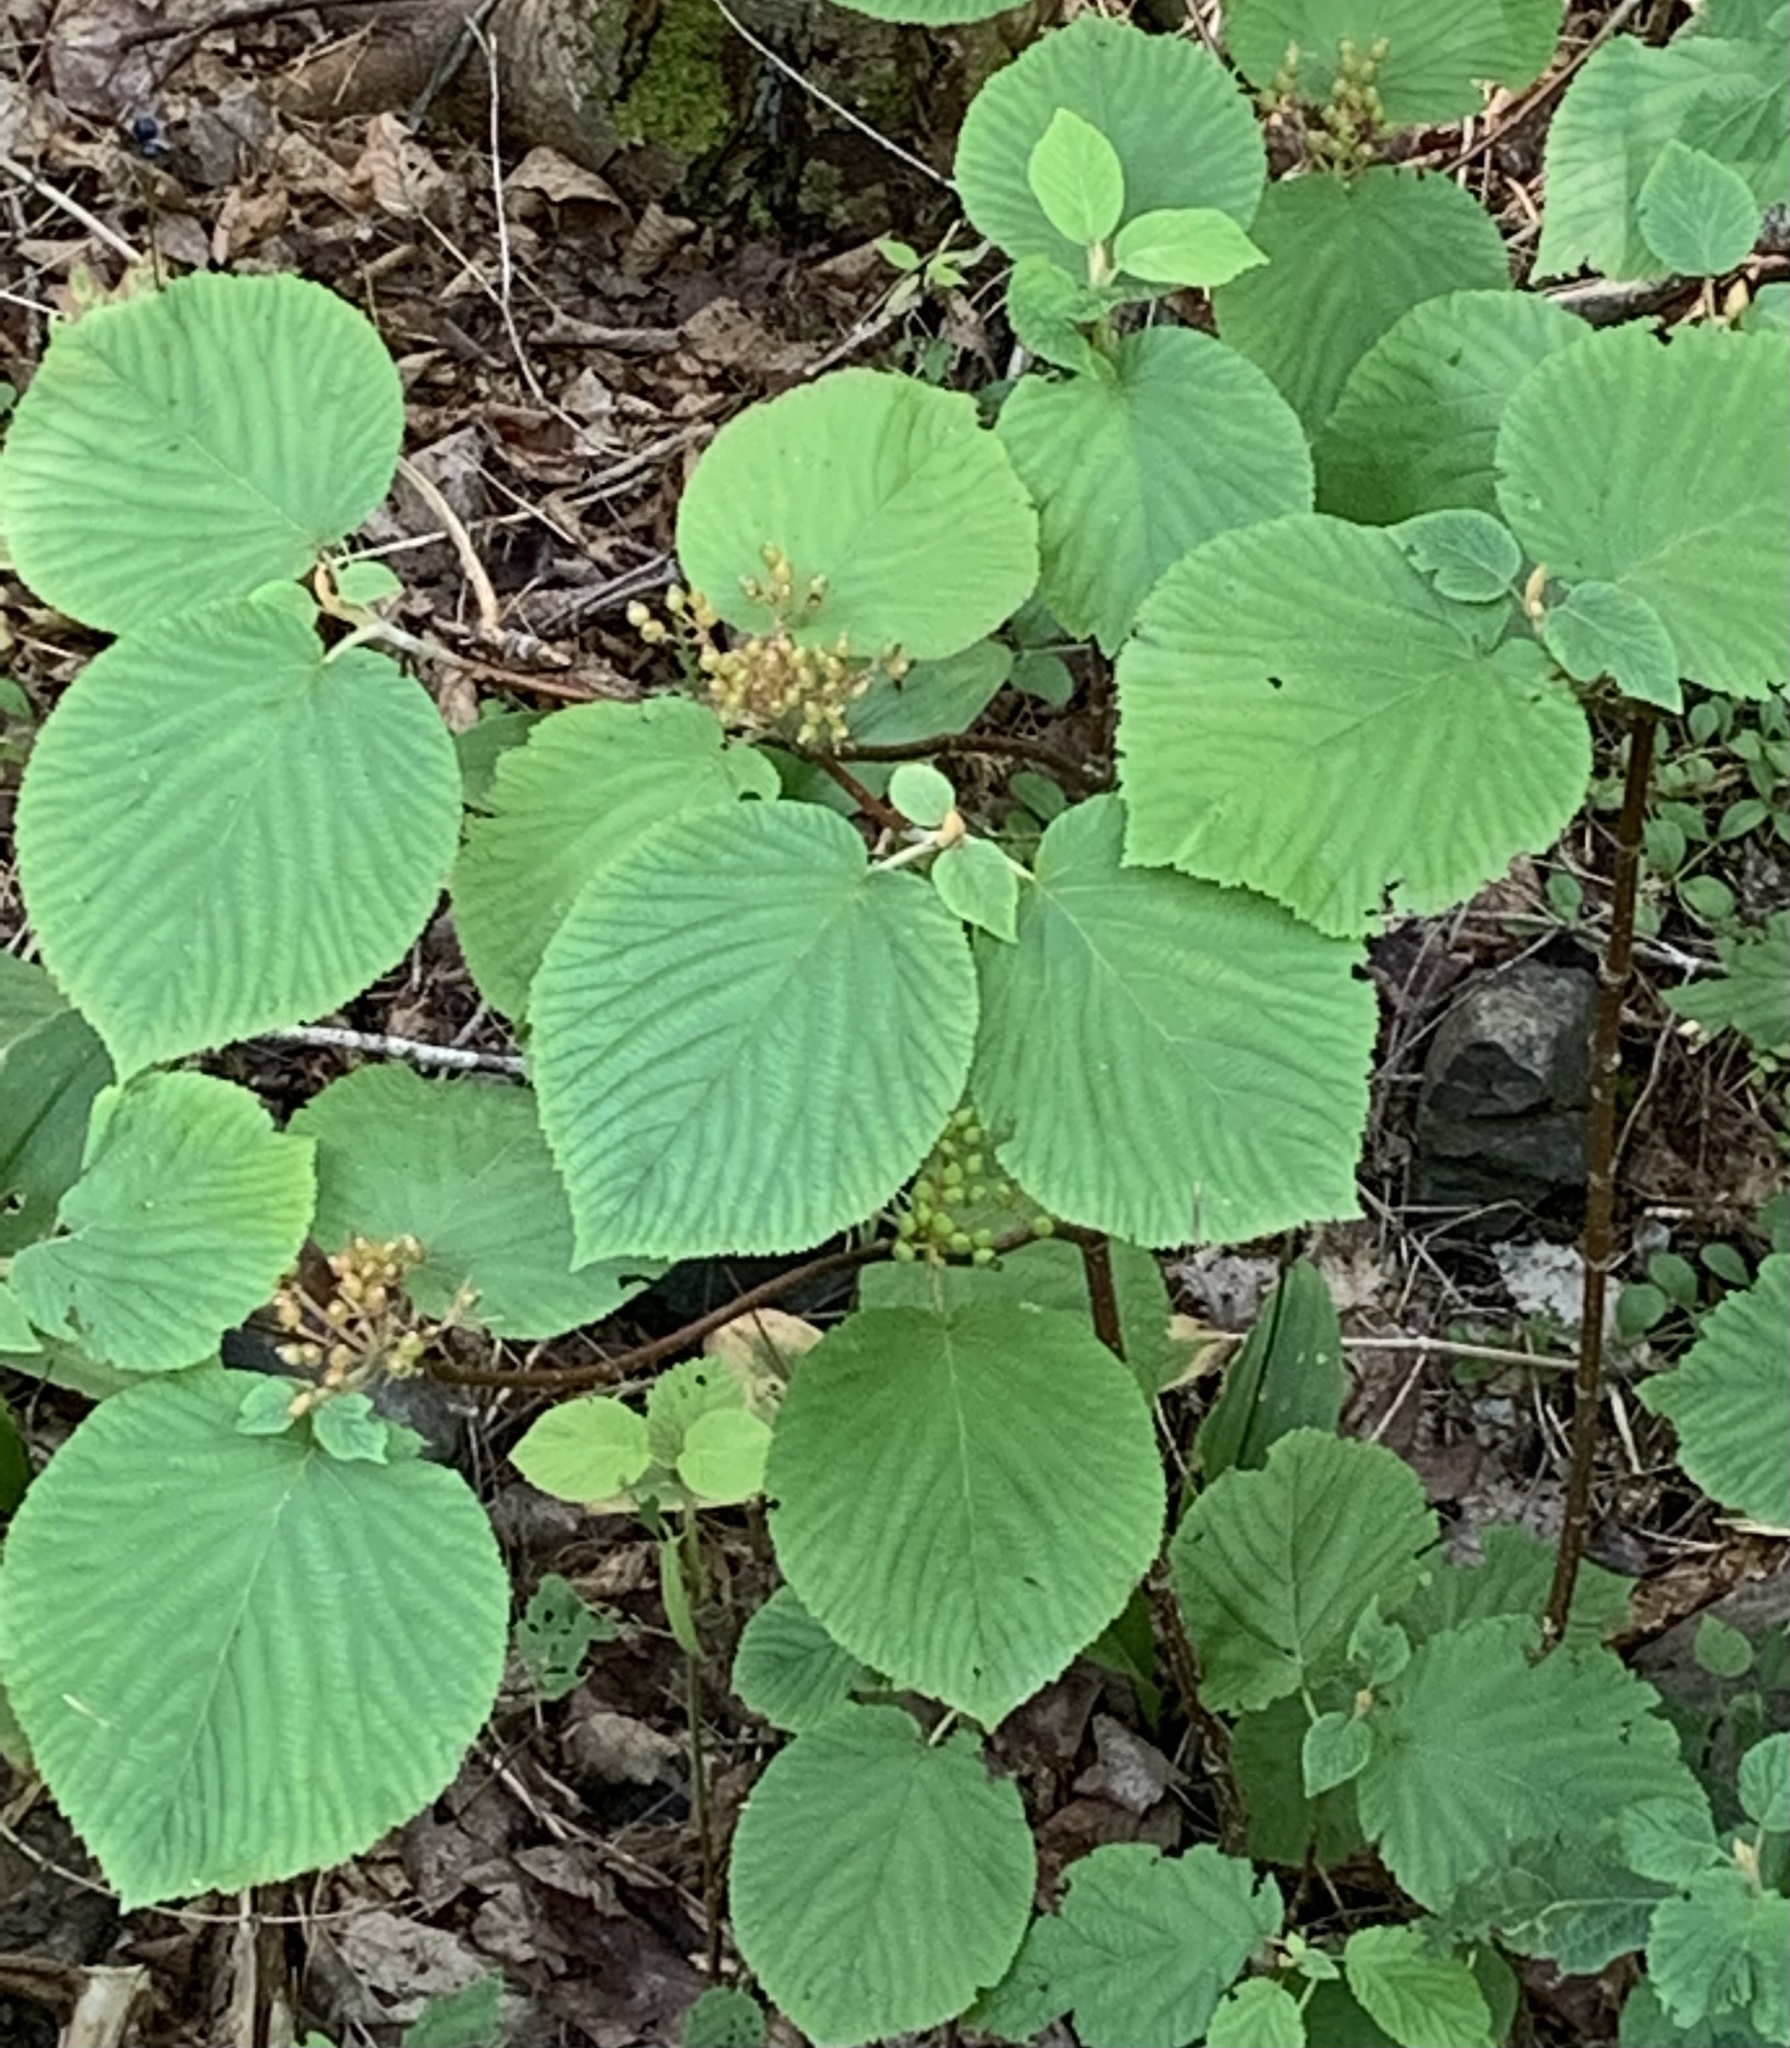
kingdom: Plantae
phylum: Tracheophyta
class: Magnoliopsida
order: Dipsacales
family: Viburnaceae
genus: Viburnum
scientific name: Viburnum lantanoides
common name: Hobblebush
